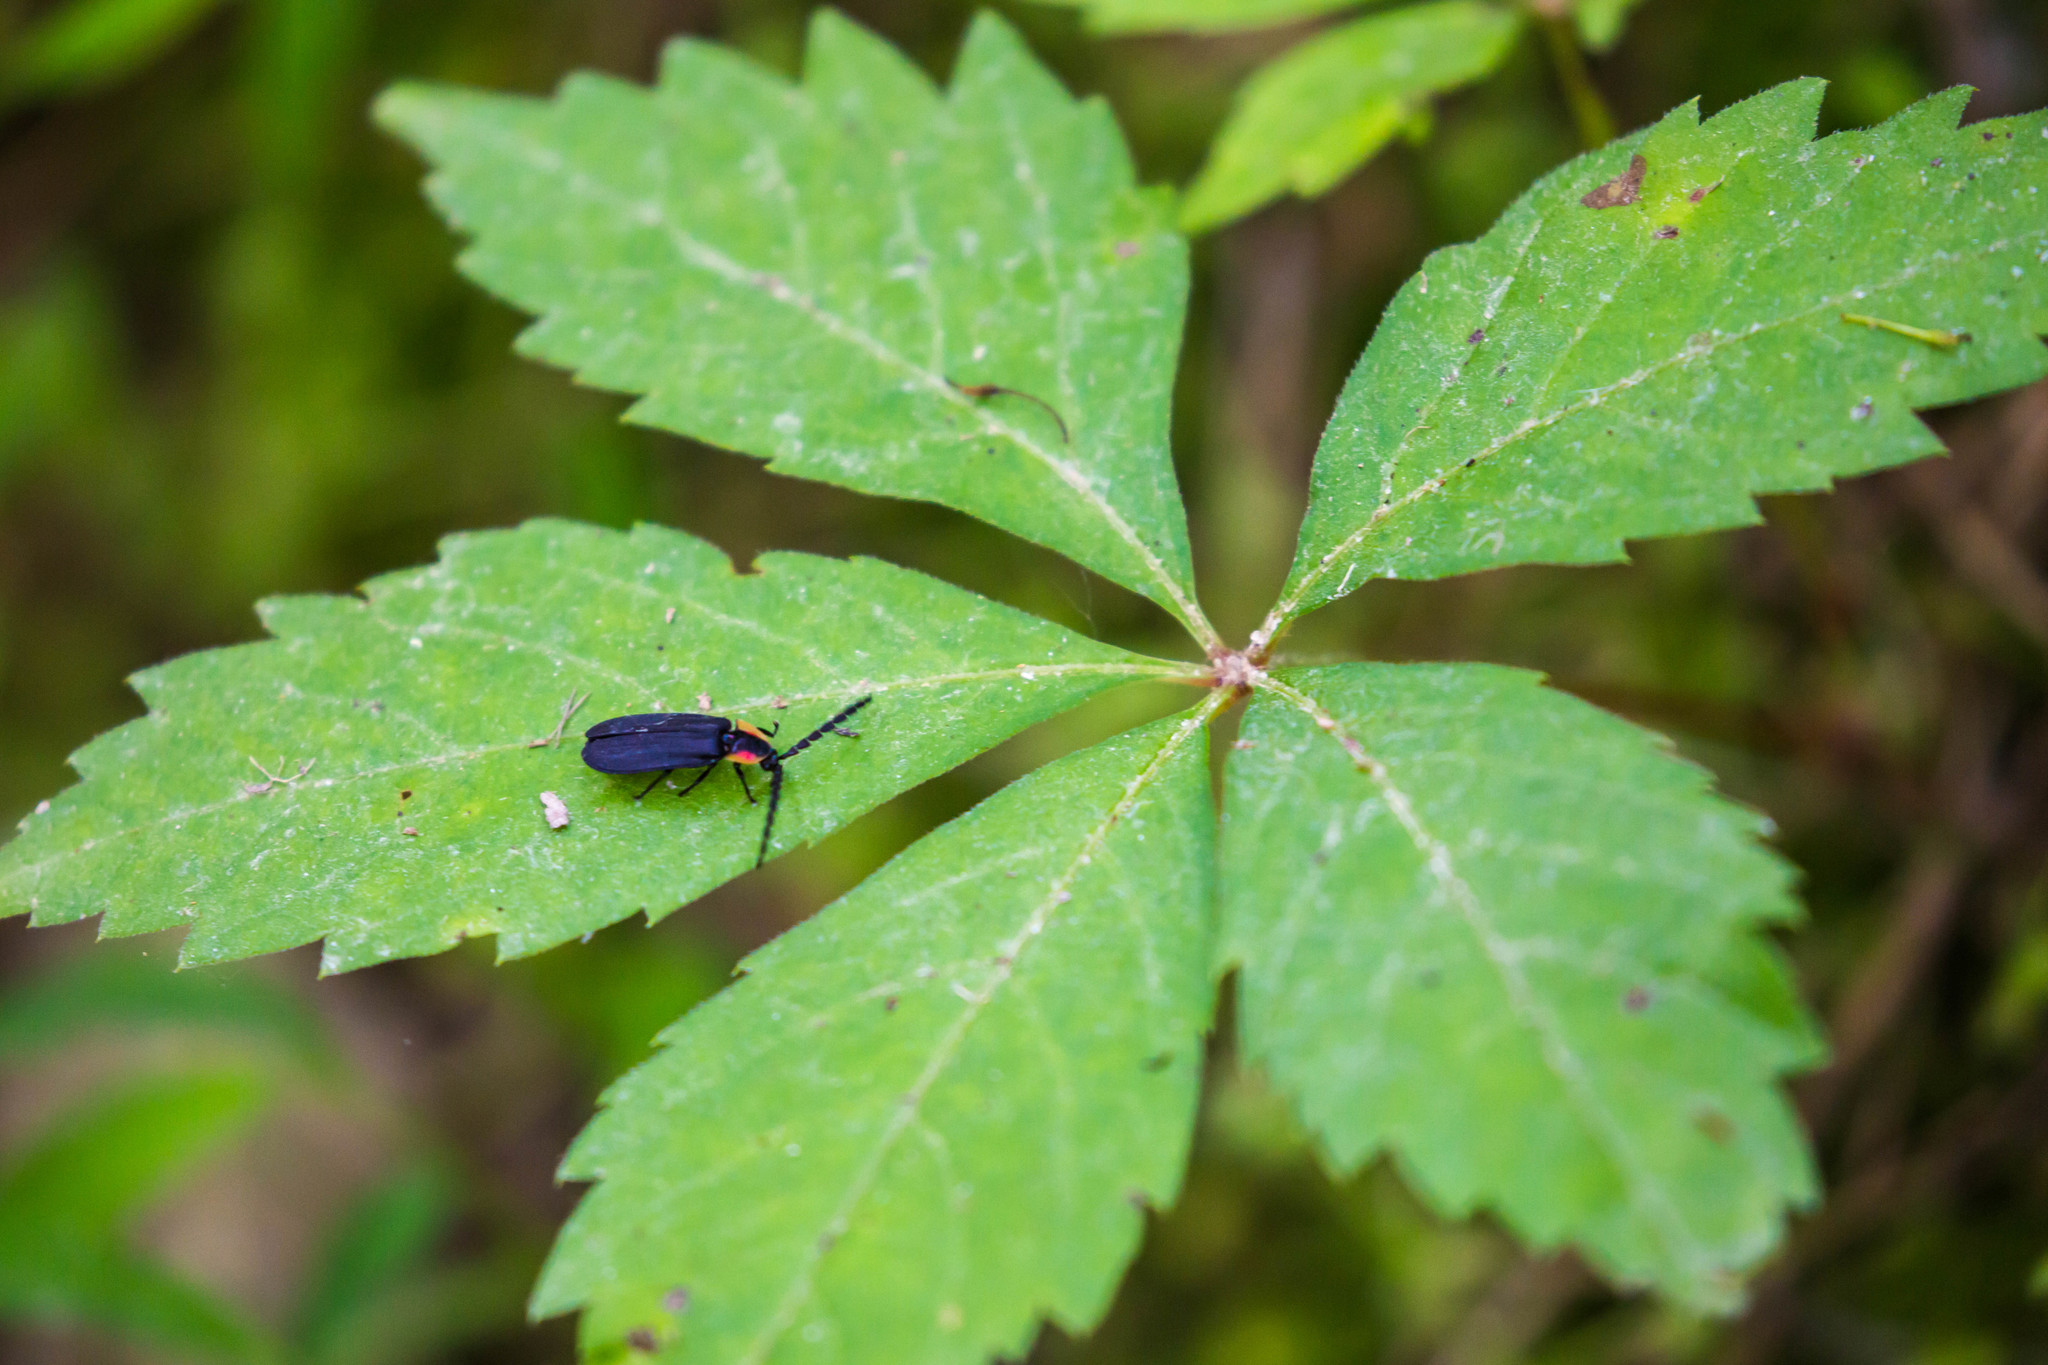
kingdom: Animalia
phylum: Arthropoda
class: Insecta
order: Coleoptera
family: Lampyridae
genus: Lucidota
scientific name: Lucidota atra
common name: Black firefly
